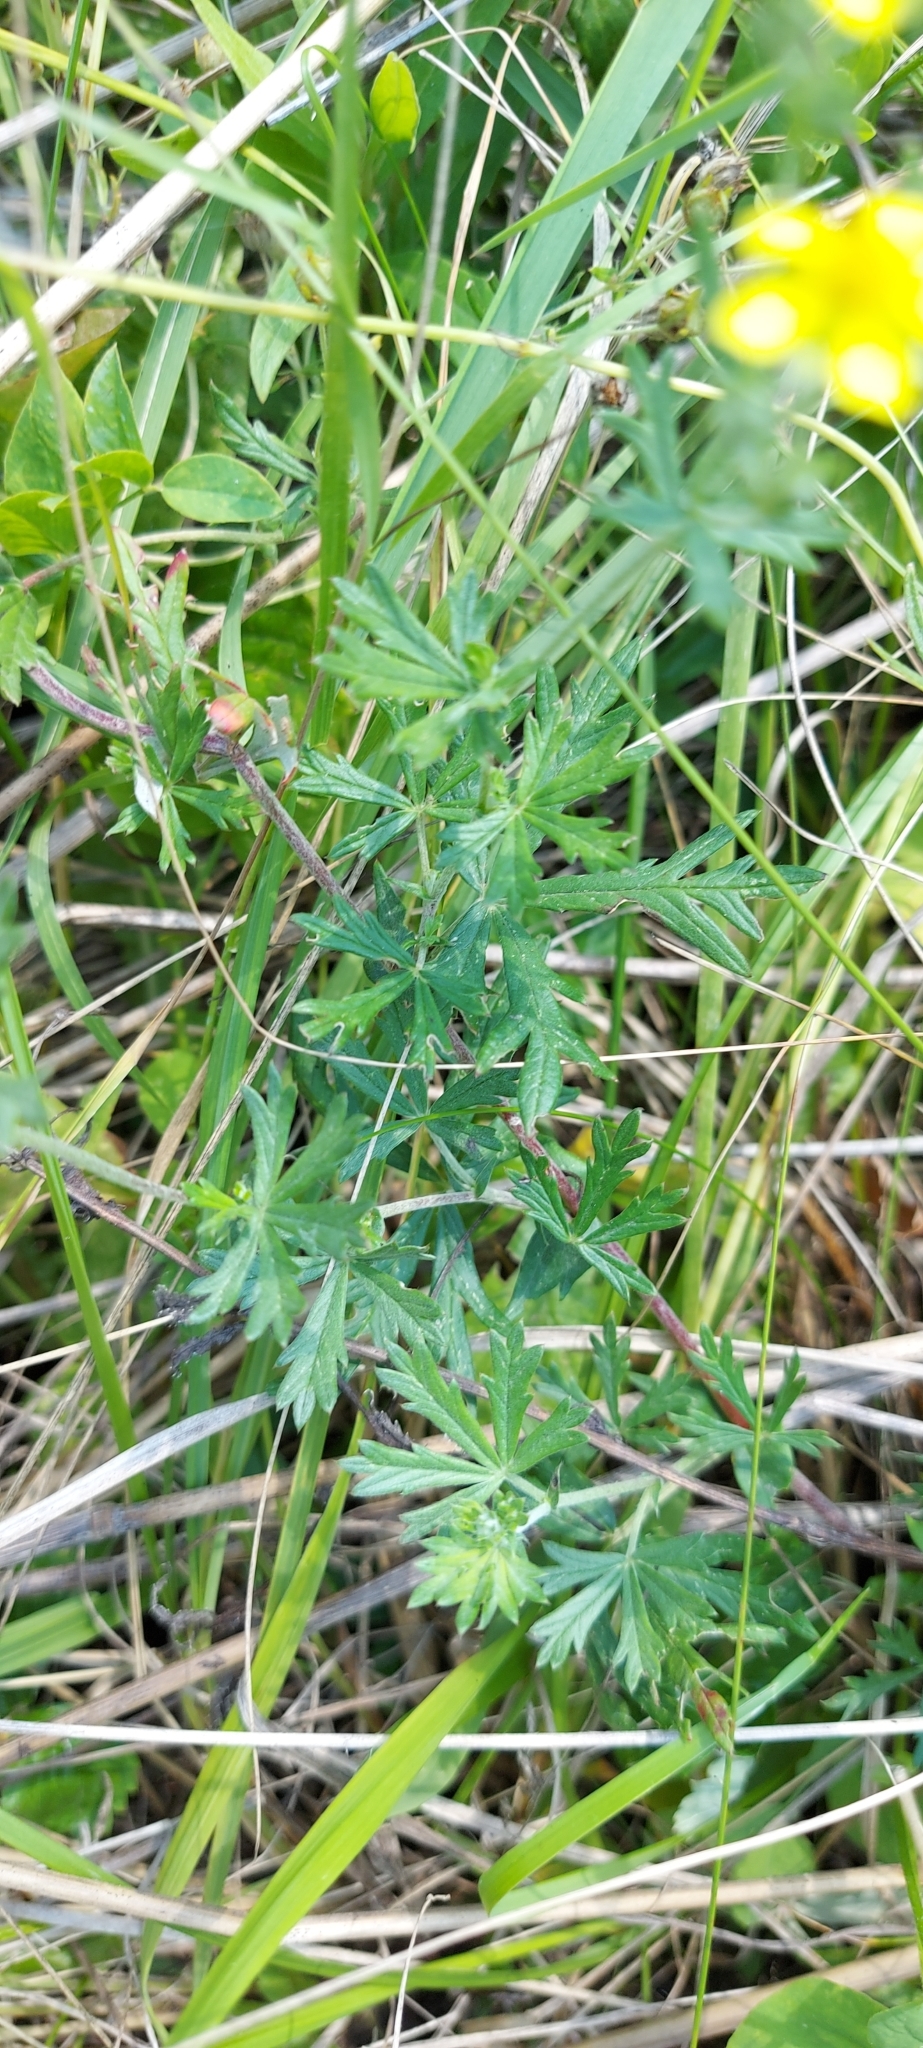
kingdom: Plantae
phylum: Tracheophyta
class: Magnoliopsida
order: Rosales
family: Rosaceae
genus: Potentilla
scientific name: Potentilla argentea
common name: Hoary cinquefoil
